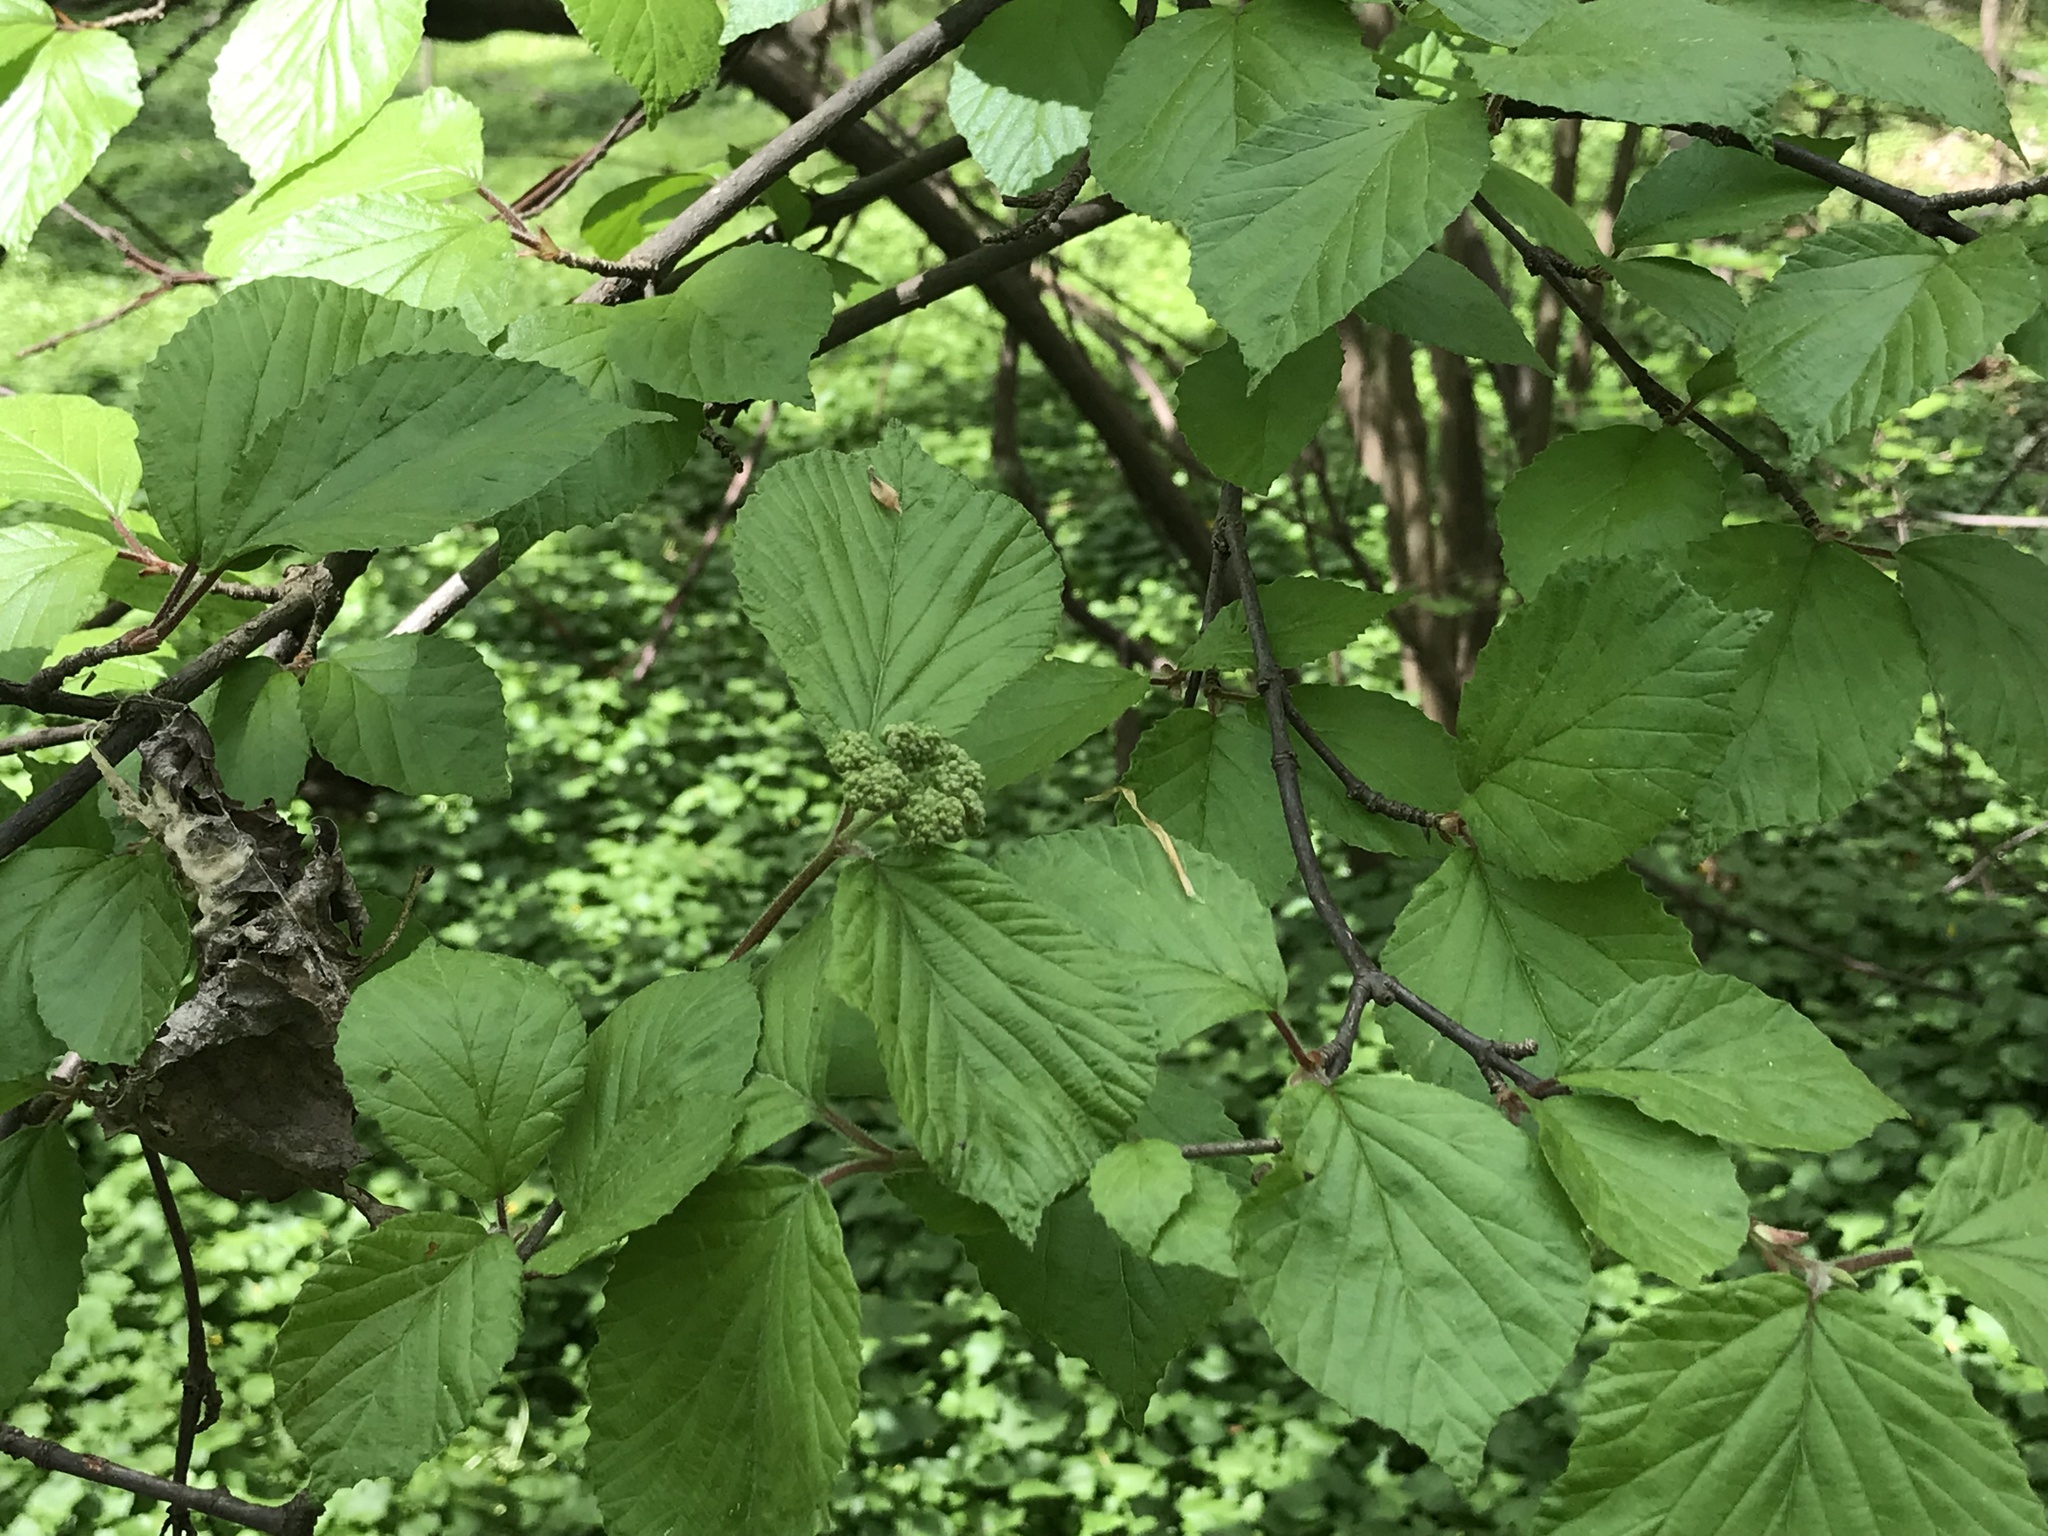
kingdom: Plantae
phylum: Tracheophyta
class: Magnoliopsida
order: Dipsacales
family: Viburnaceae
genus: Viburnum
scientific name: Viburnum dilatatum
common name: Linden arrowwood
